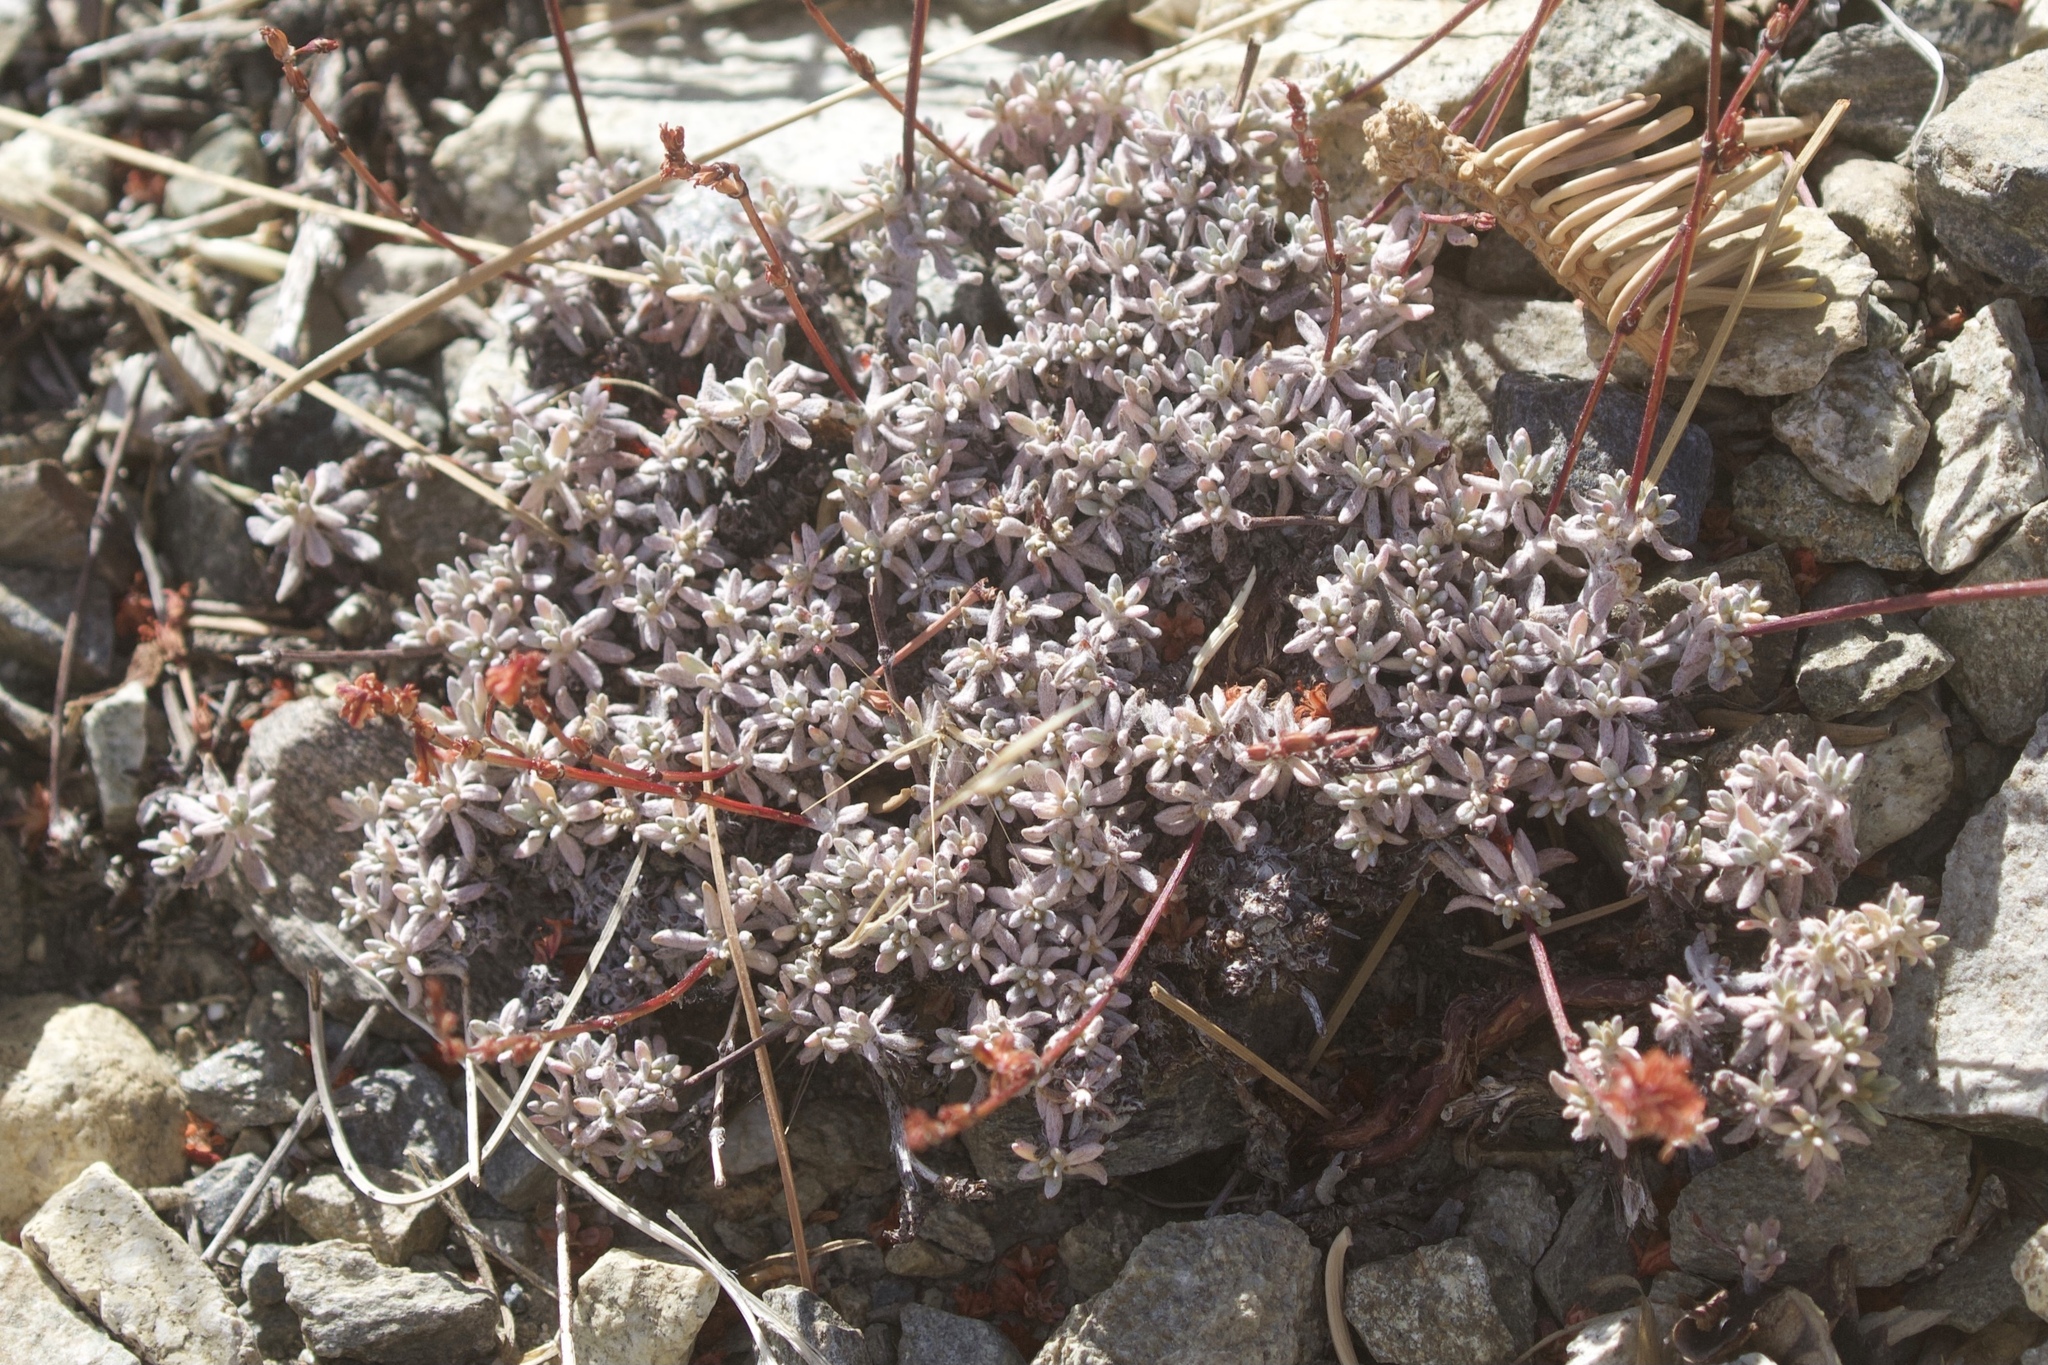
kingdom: Plantae
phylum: Tracheophyta
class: Magnoliopsida
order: Caryophyllales
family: Polygonaceae
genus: Eriogonum
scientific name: Eriogonum wrightii
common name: Bastard-sage
